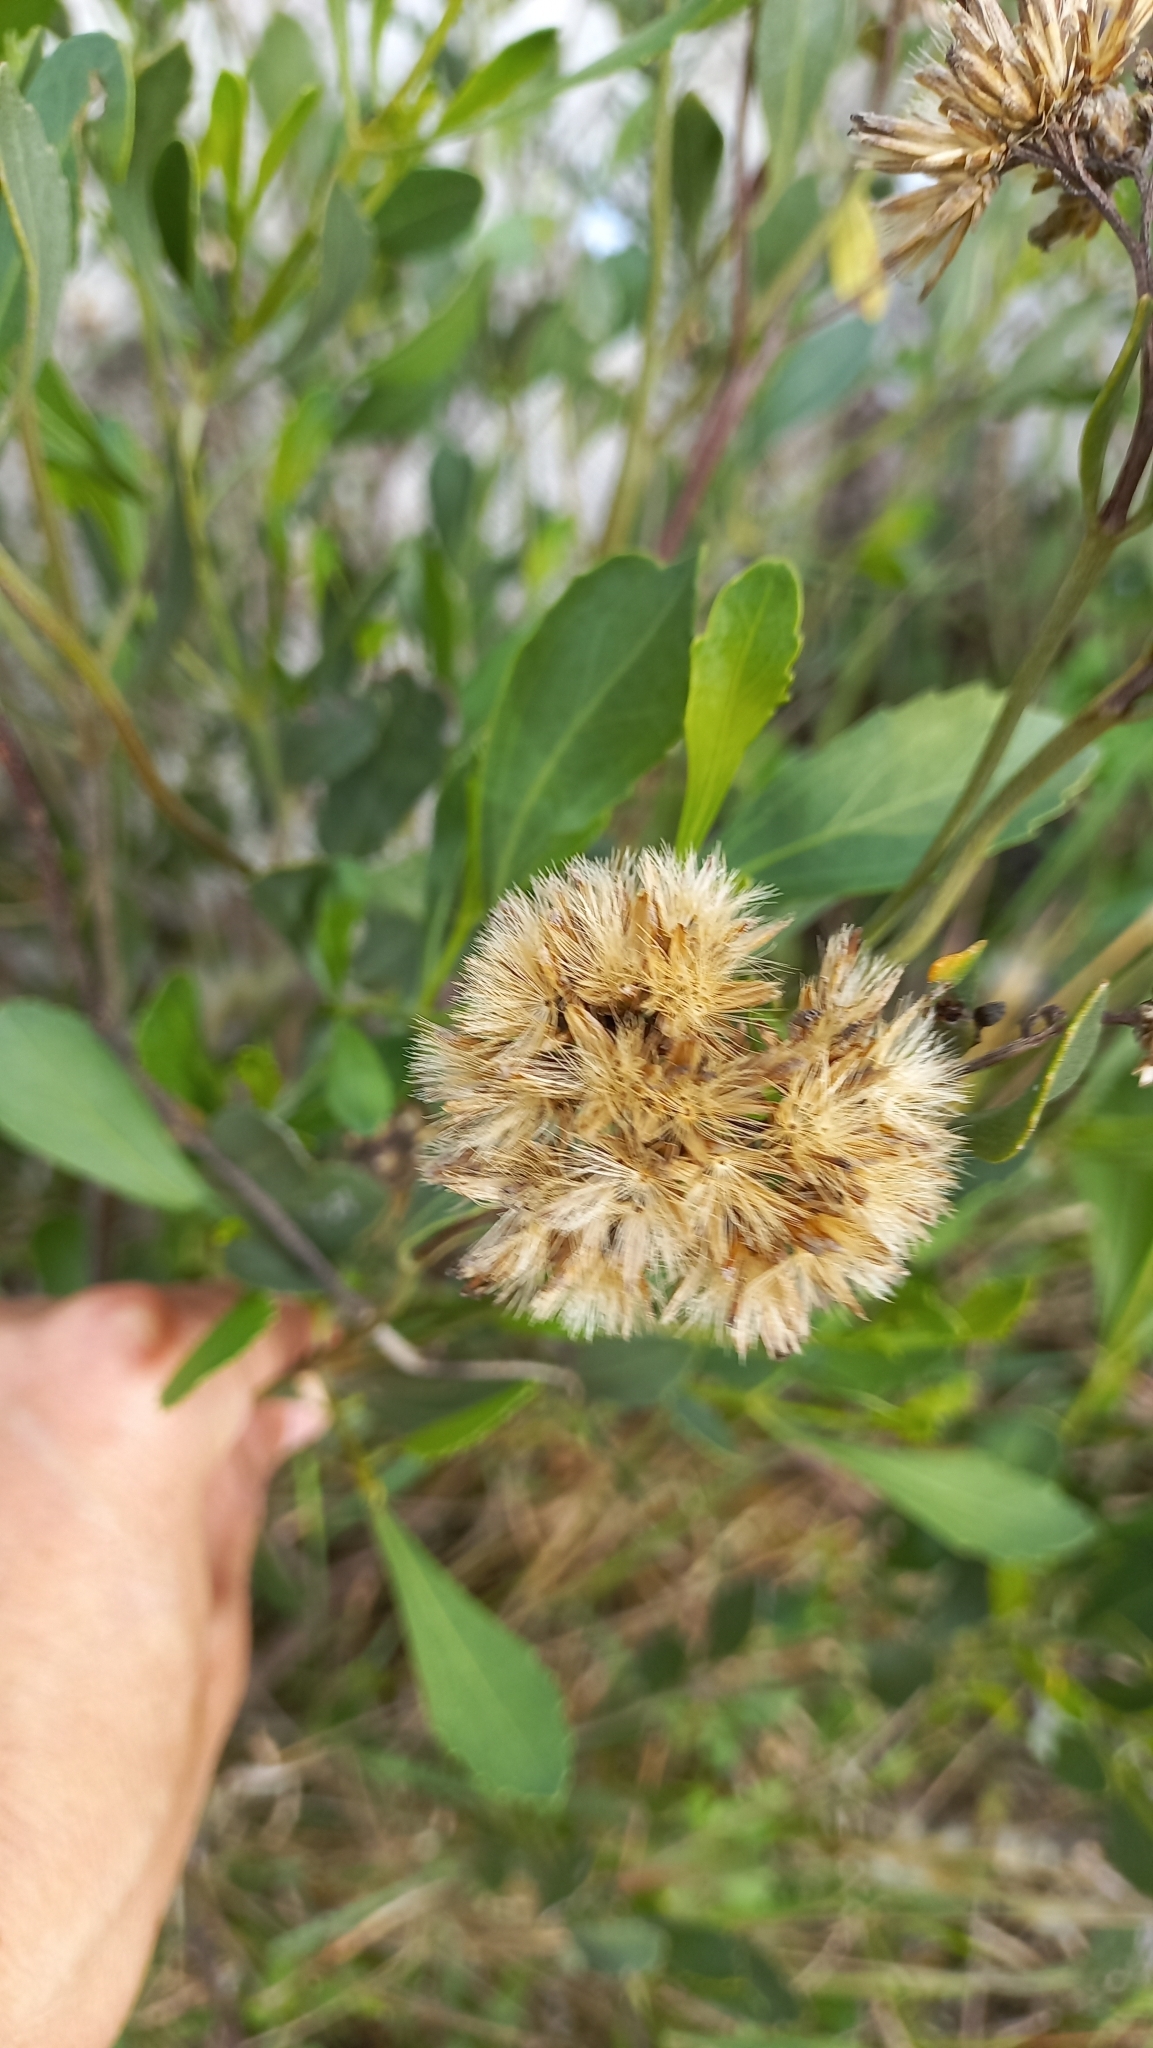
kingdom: Plantae
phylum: Tracheophyta
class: Magnoliopsida
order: Asterales
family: Asteraceae
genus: Symphyopappus
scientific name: Symphyopappus casarettoi
